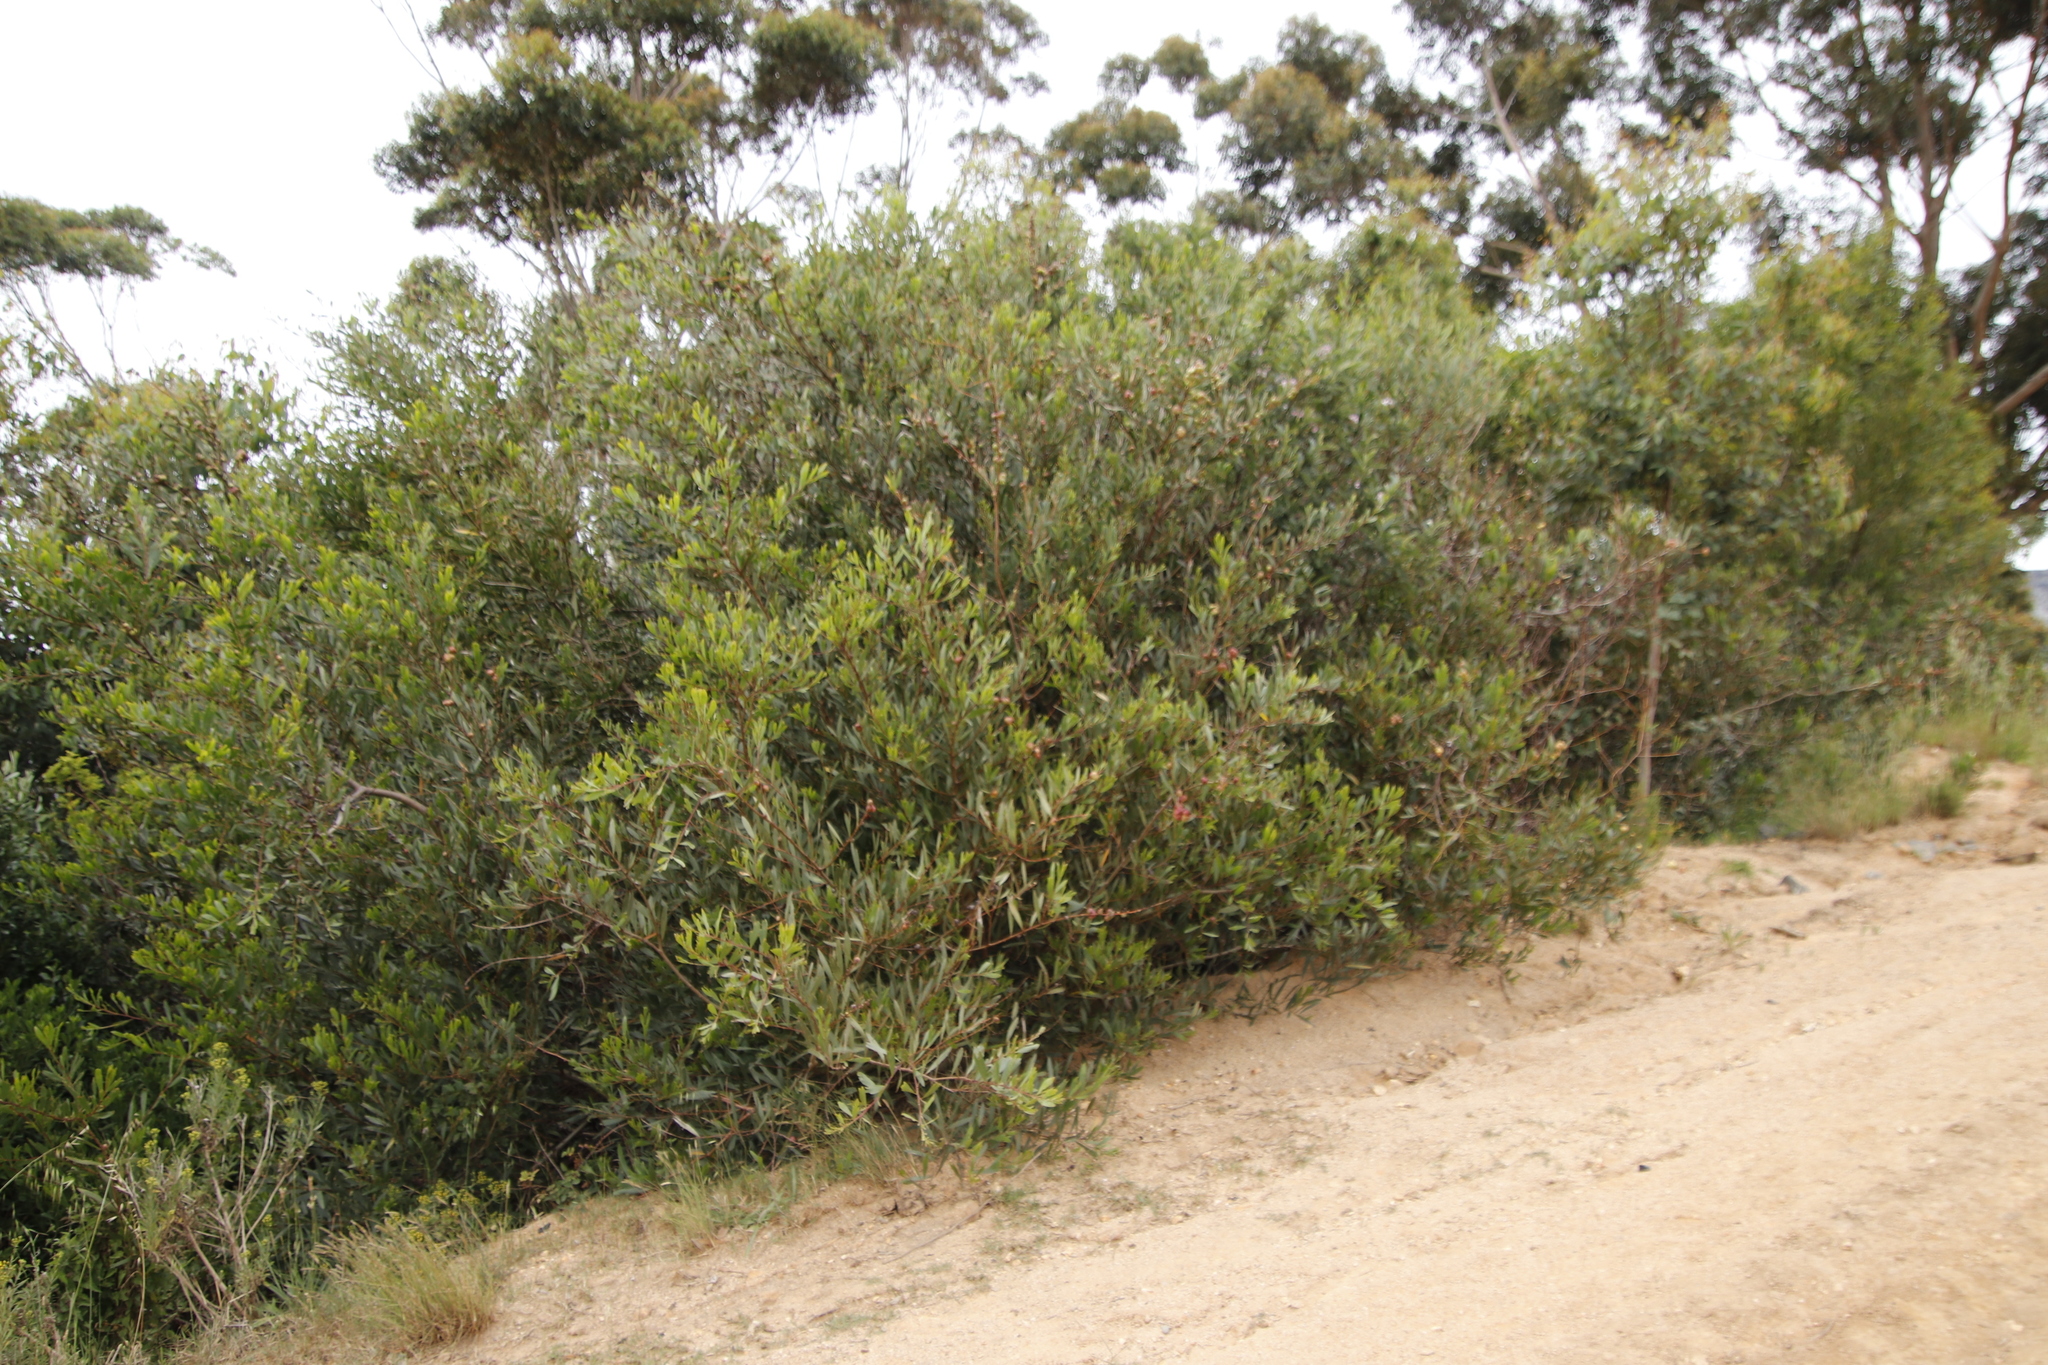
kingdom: Plantae
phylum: Tracheophyta
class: Magnoliopsida
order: Fabales
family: Fabaceae
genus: Acacia
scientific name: Acacia longifolia
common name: Sydney golden wattle
